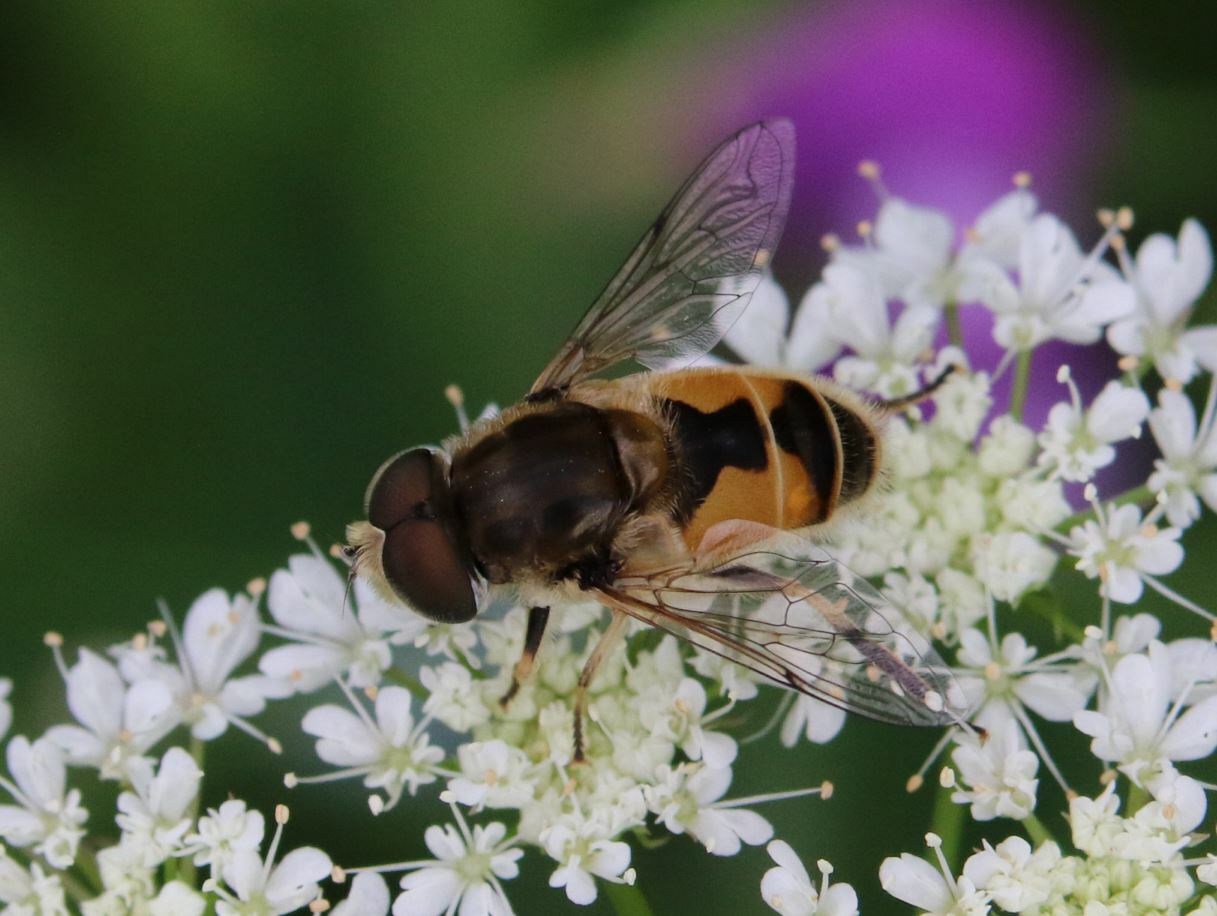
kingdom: Animalia
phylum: Arthropoda
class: Insecta
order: Diptera
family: Syrphidae
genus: Eristalis
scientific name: Eristalis arbustorum
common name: Hover fly
